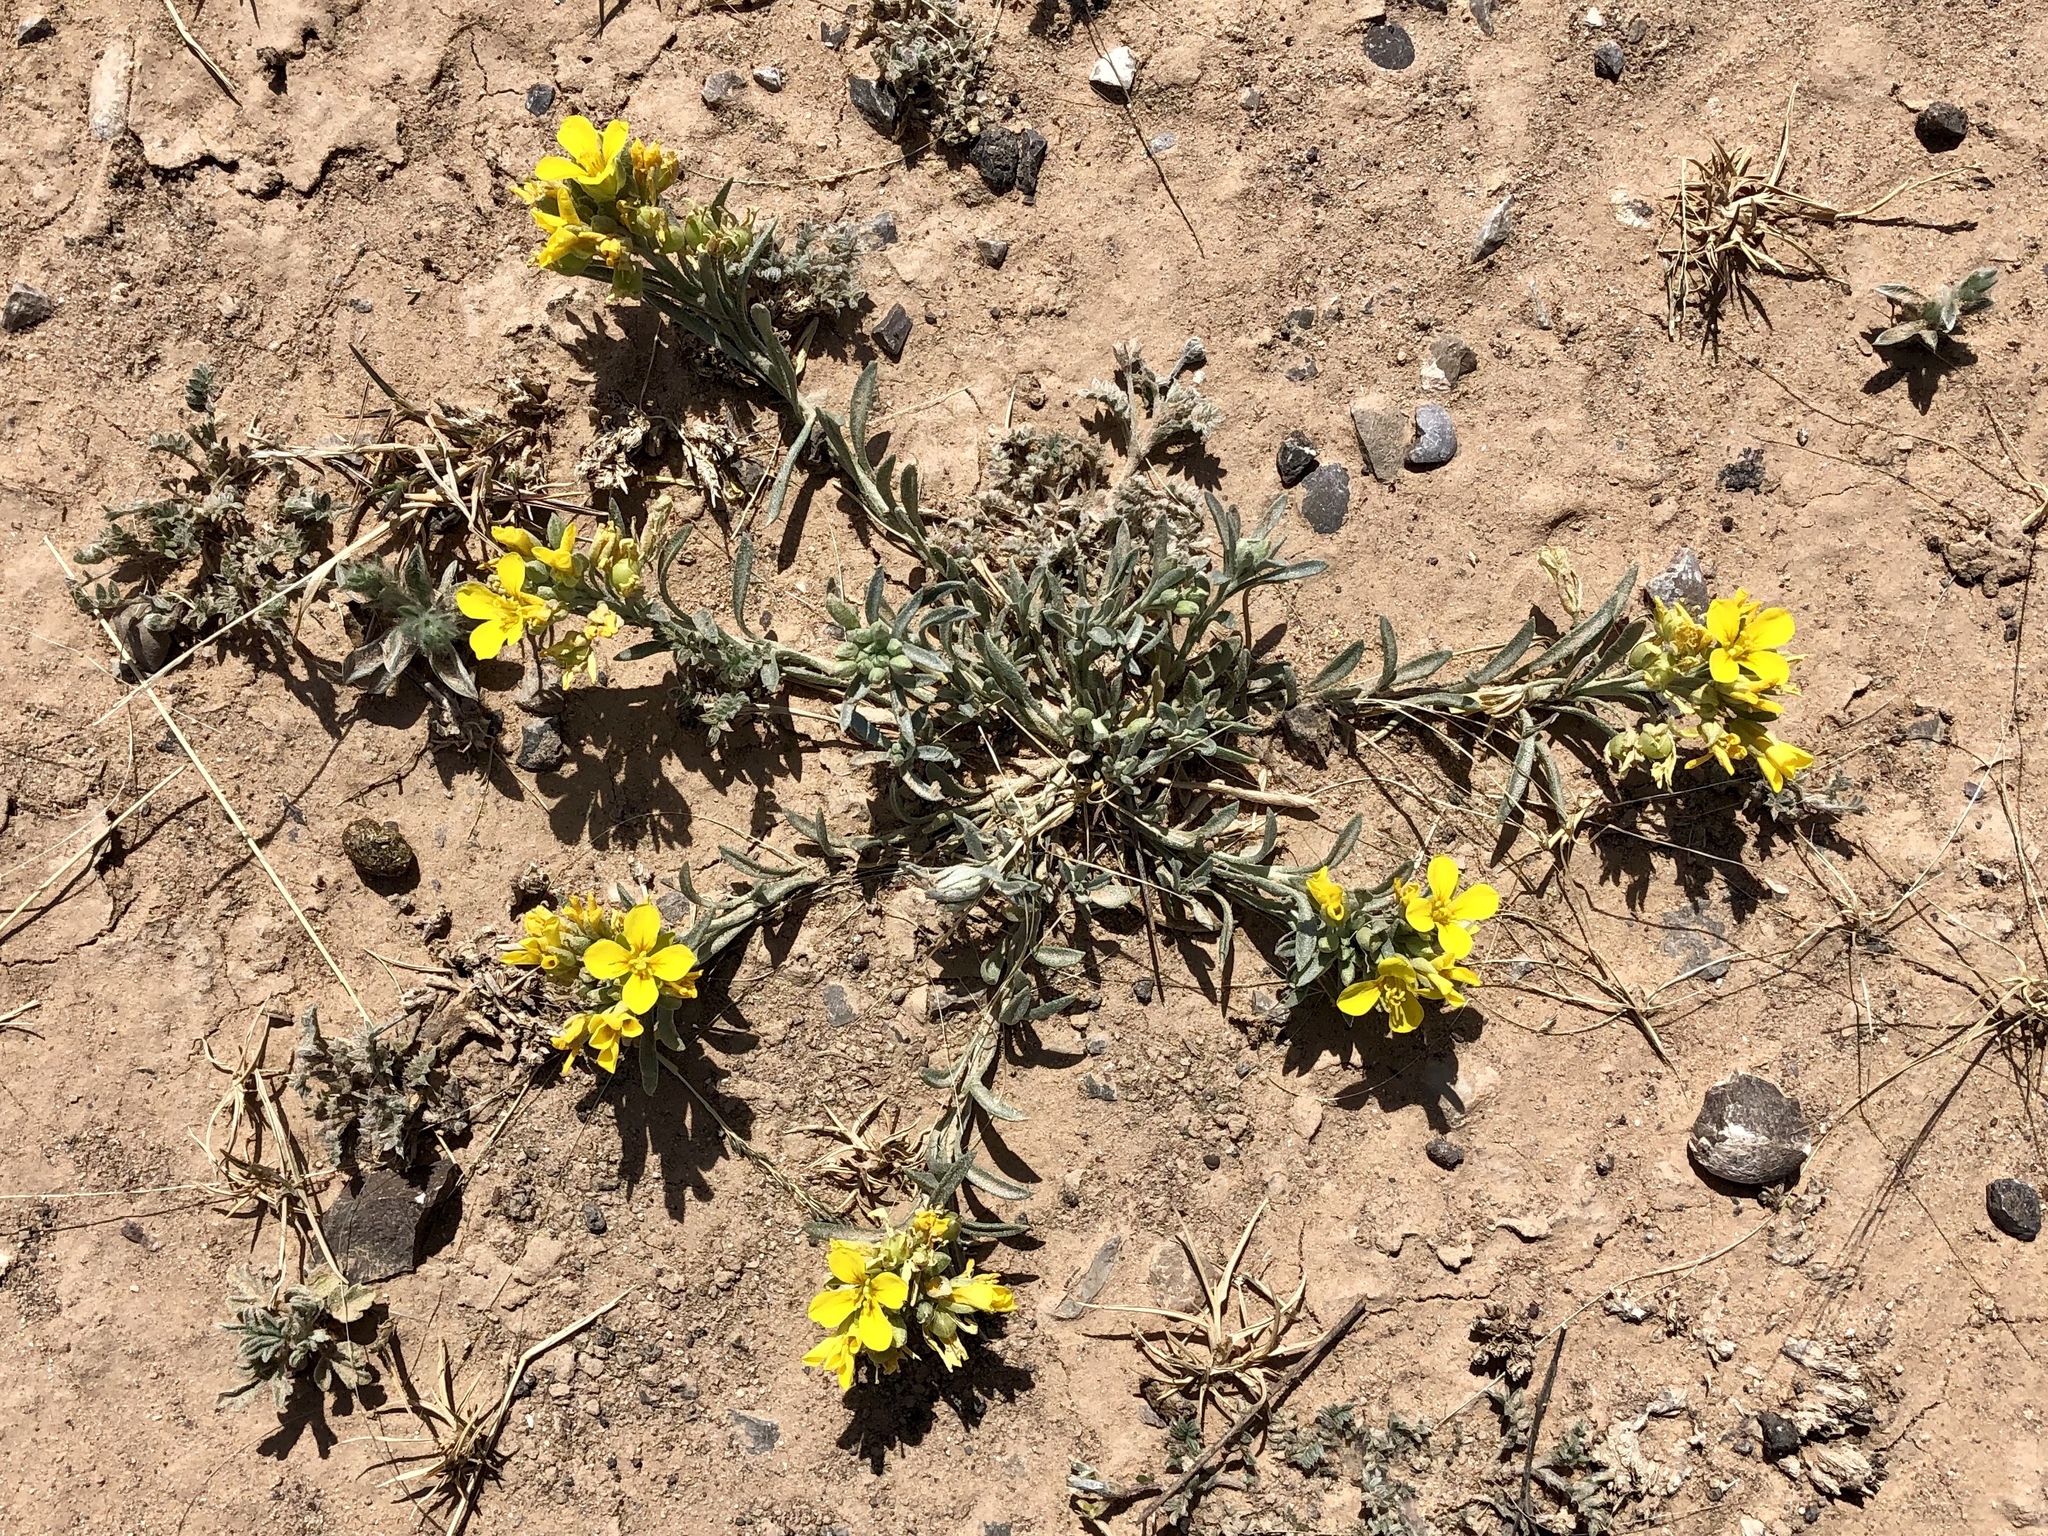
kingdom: Plantae
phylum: Tracheophyta
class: Magnoliopsida
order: Brassicales
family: Brassicaceae
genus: Physaria
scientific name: Physaria fendleri
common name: Fendler's bladderpod
